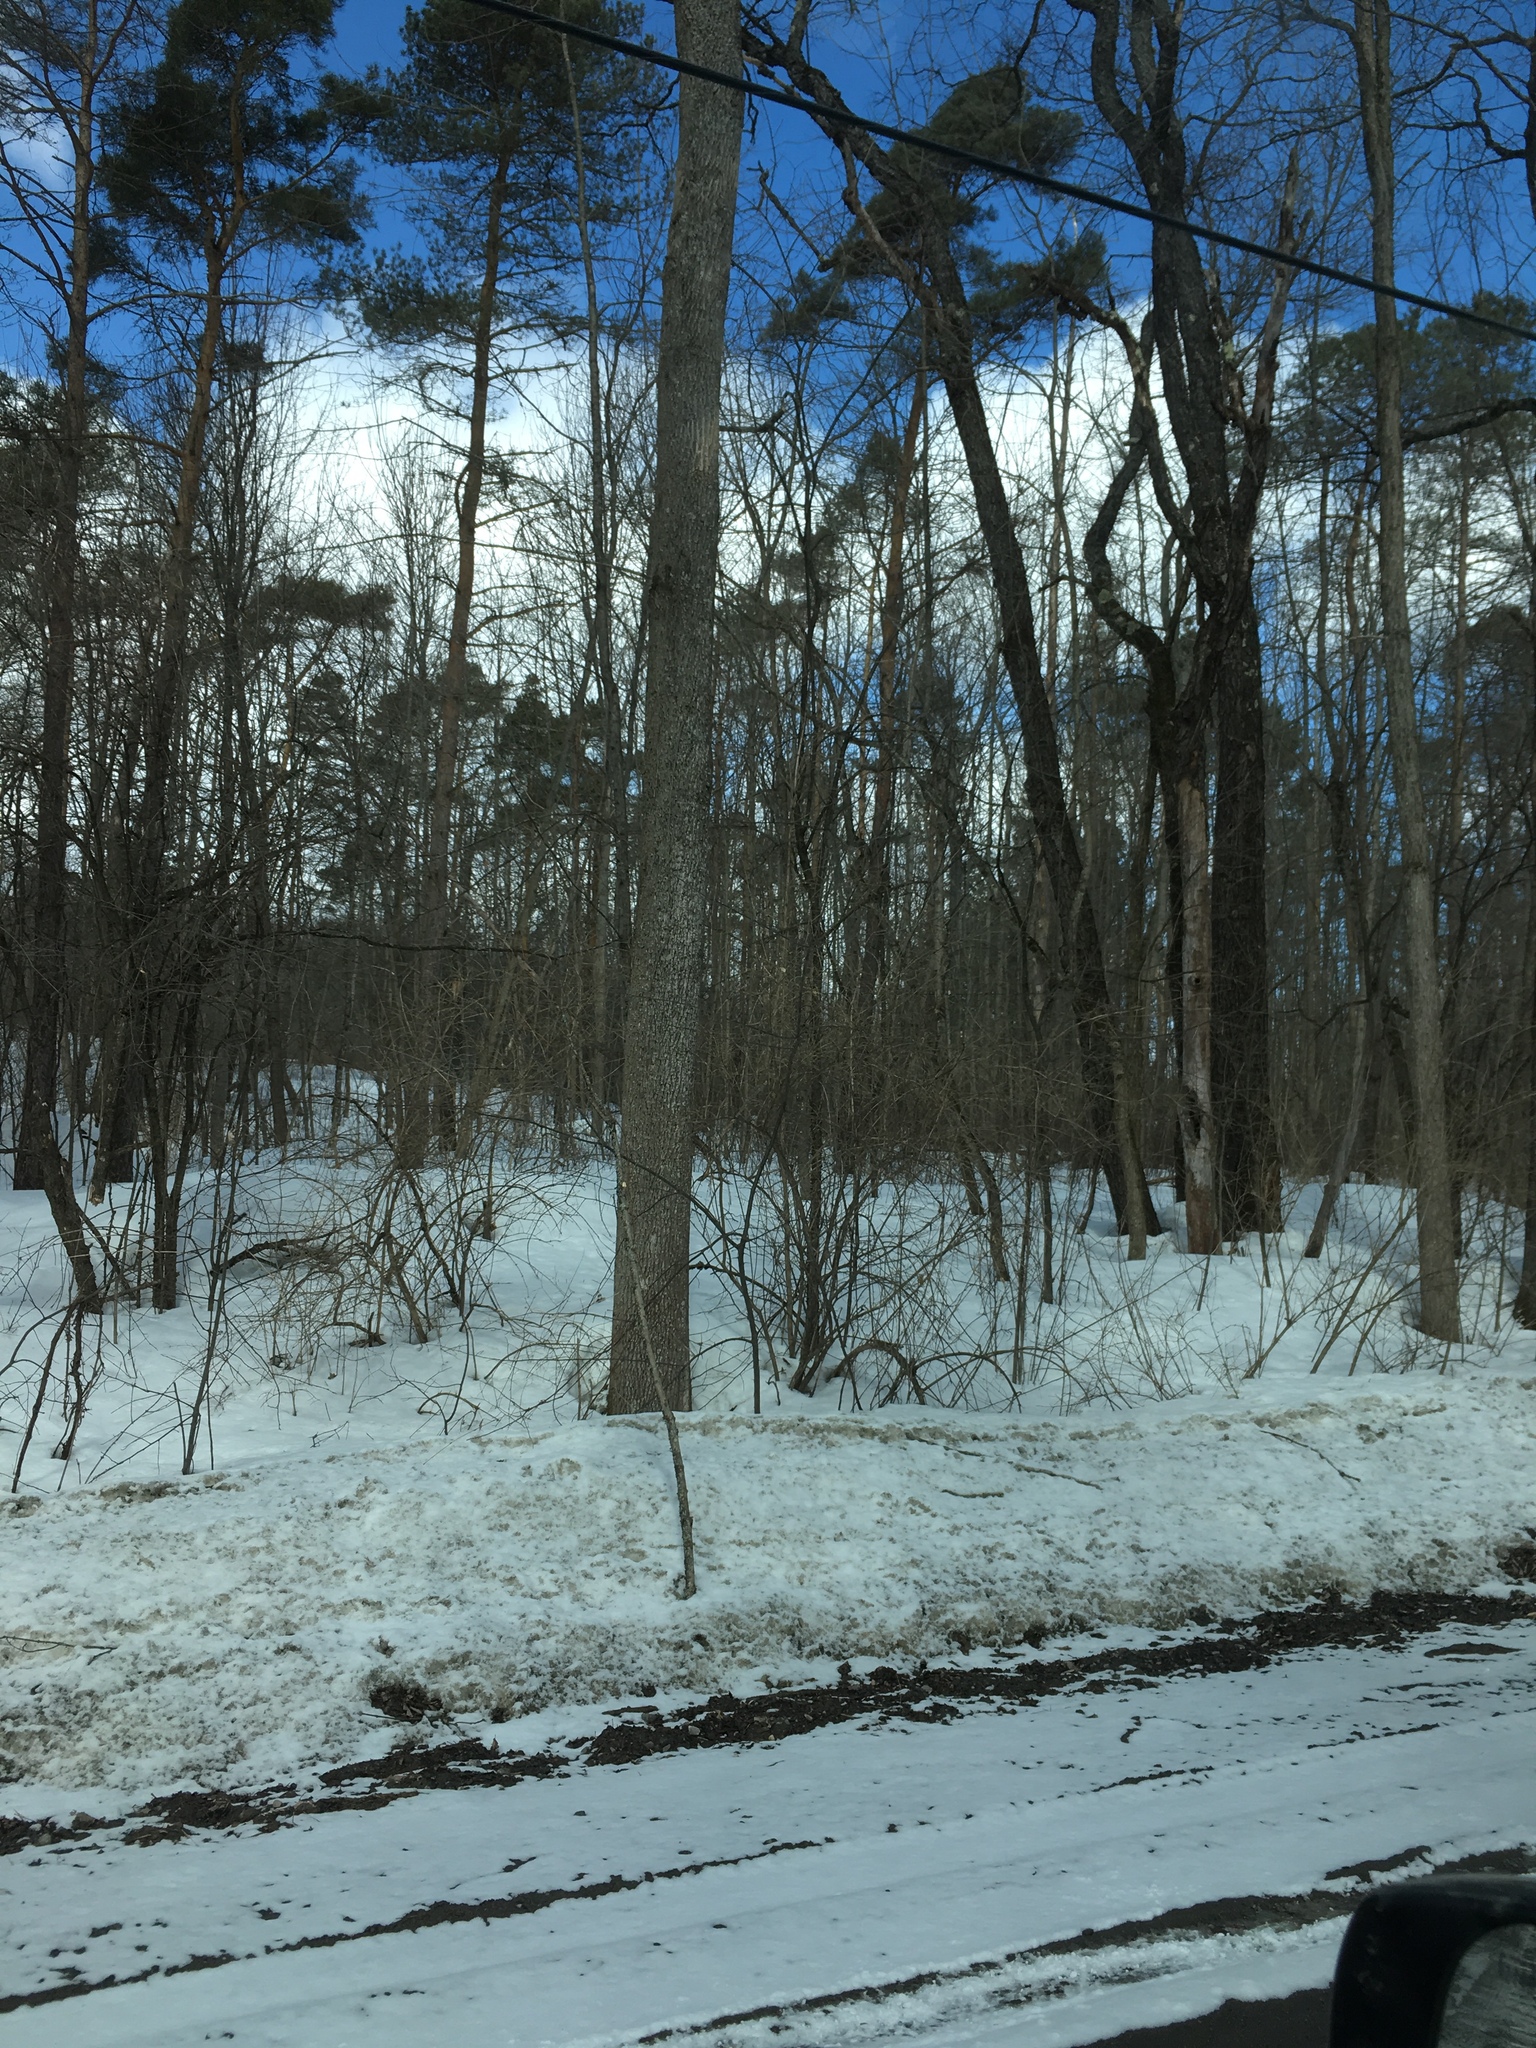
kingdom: Plantae
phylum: Tracheophyta
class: Magnoliopsida
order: Lamiales
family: Oleaceae
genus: Fraxinus
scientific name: Fraxinus americana
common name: White ash
